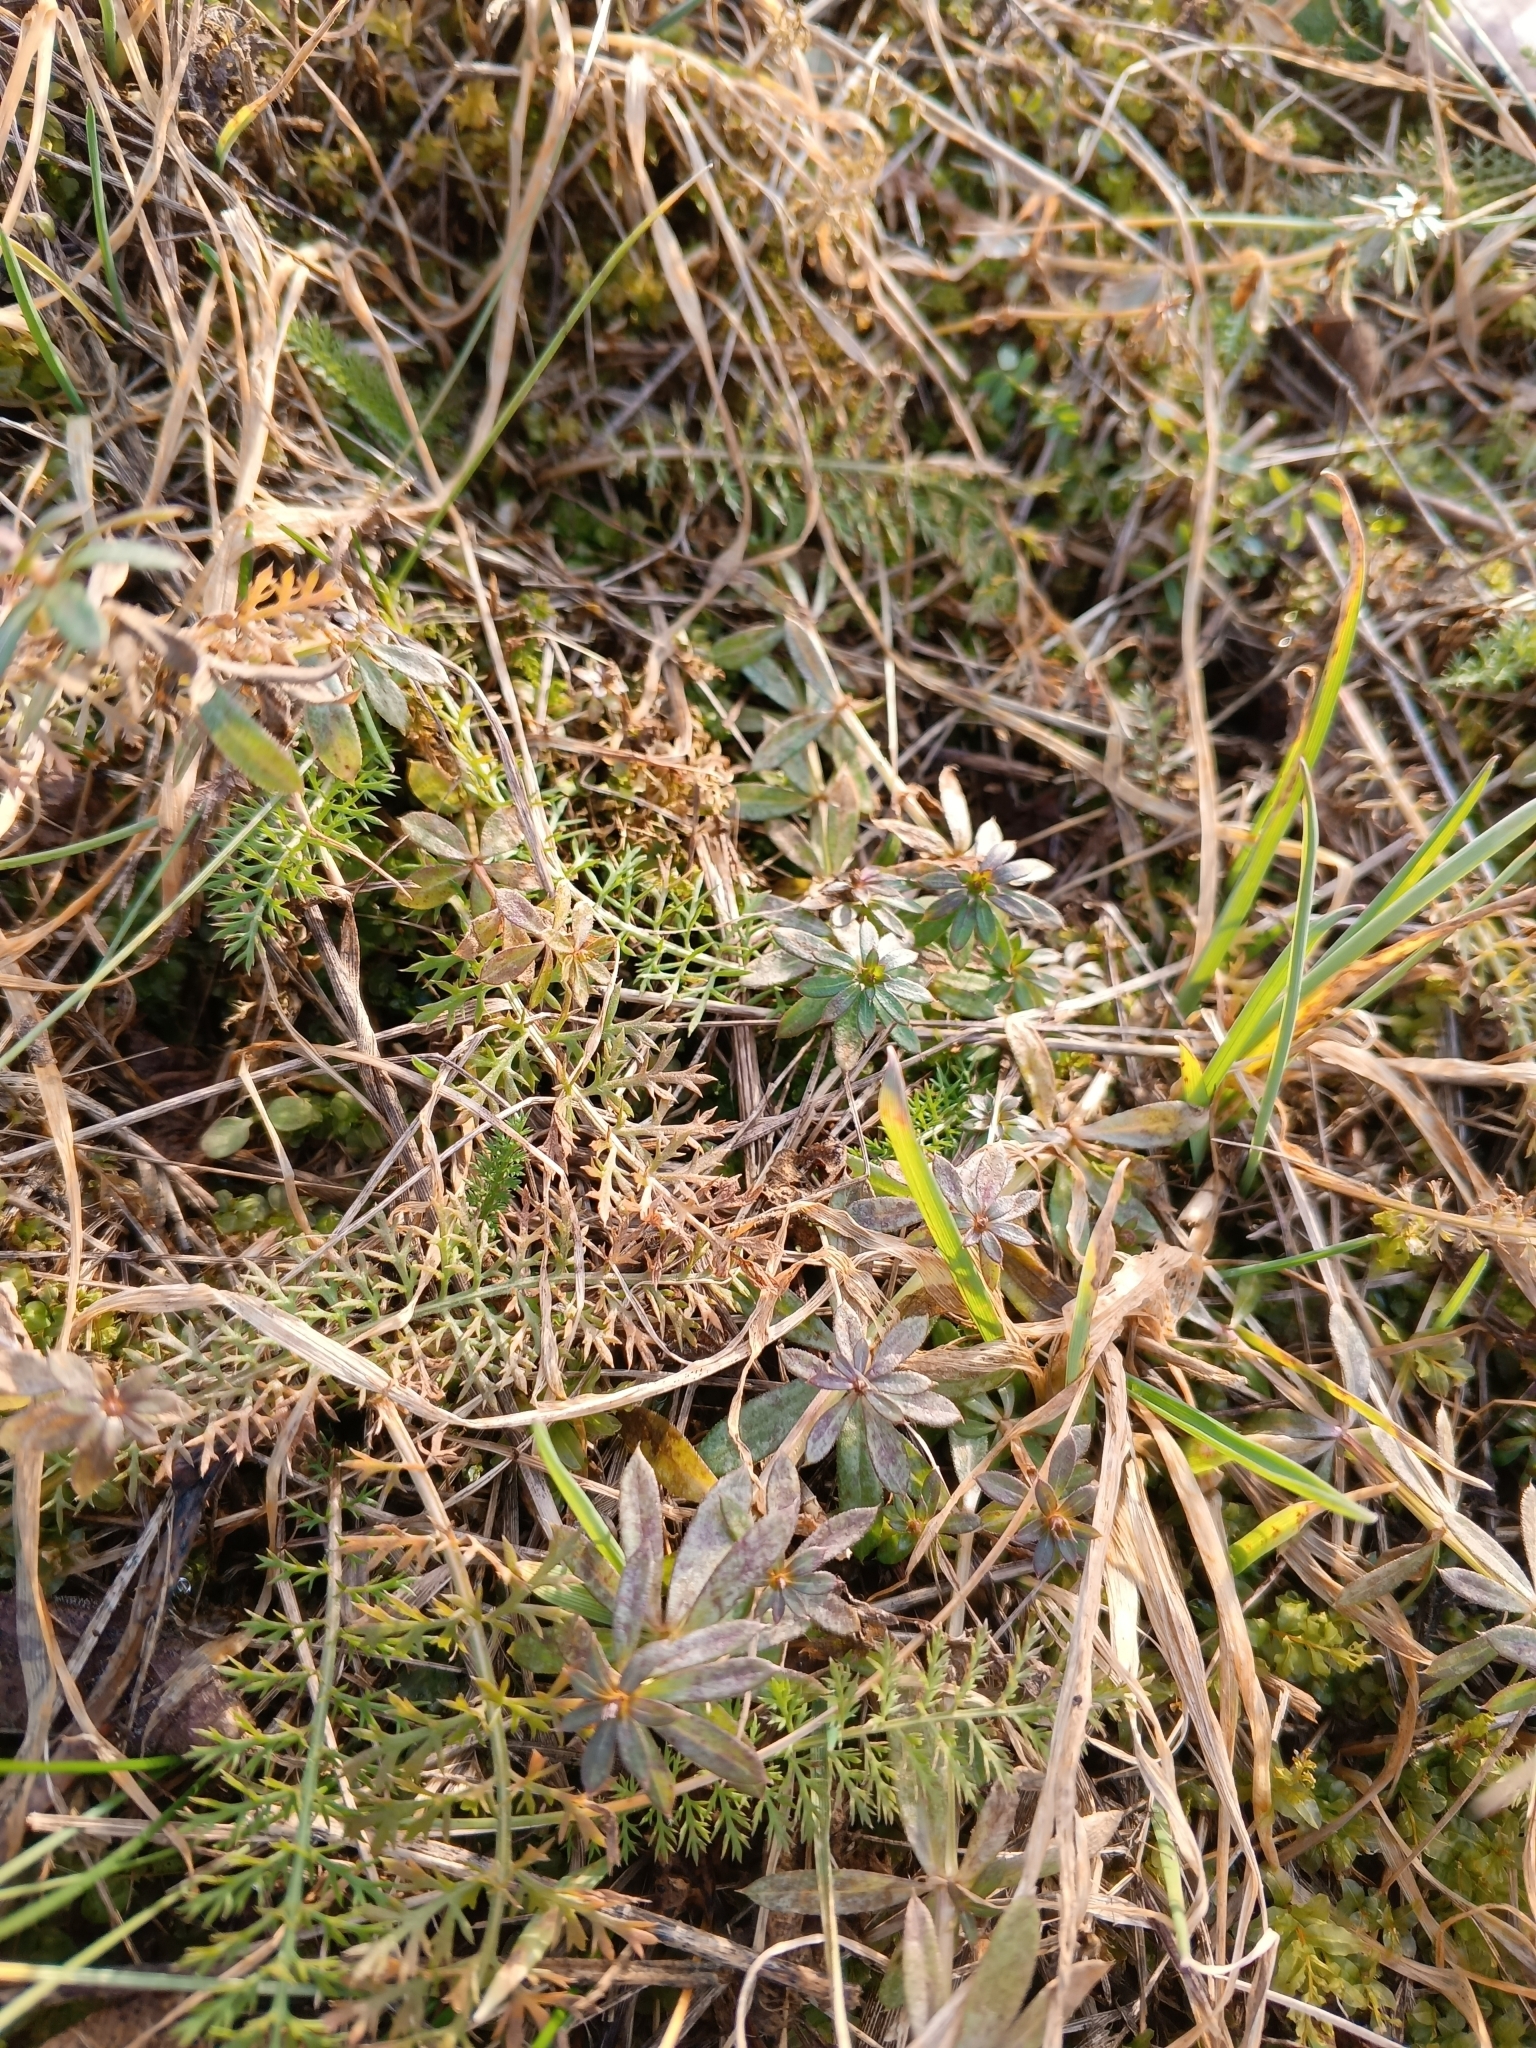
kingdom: Plantae
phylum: Tracheophyta
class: Magnoliopsida
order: Gentianales
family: Rubiaceae
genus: Galium
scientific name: Galium mollugo
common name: Hedge bedstraw
